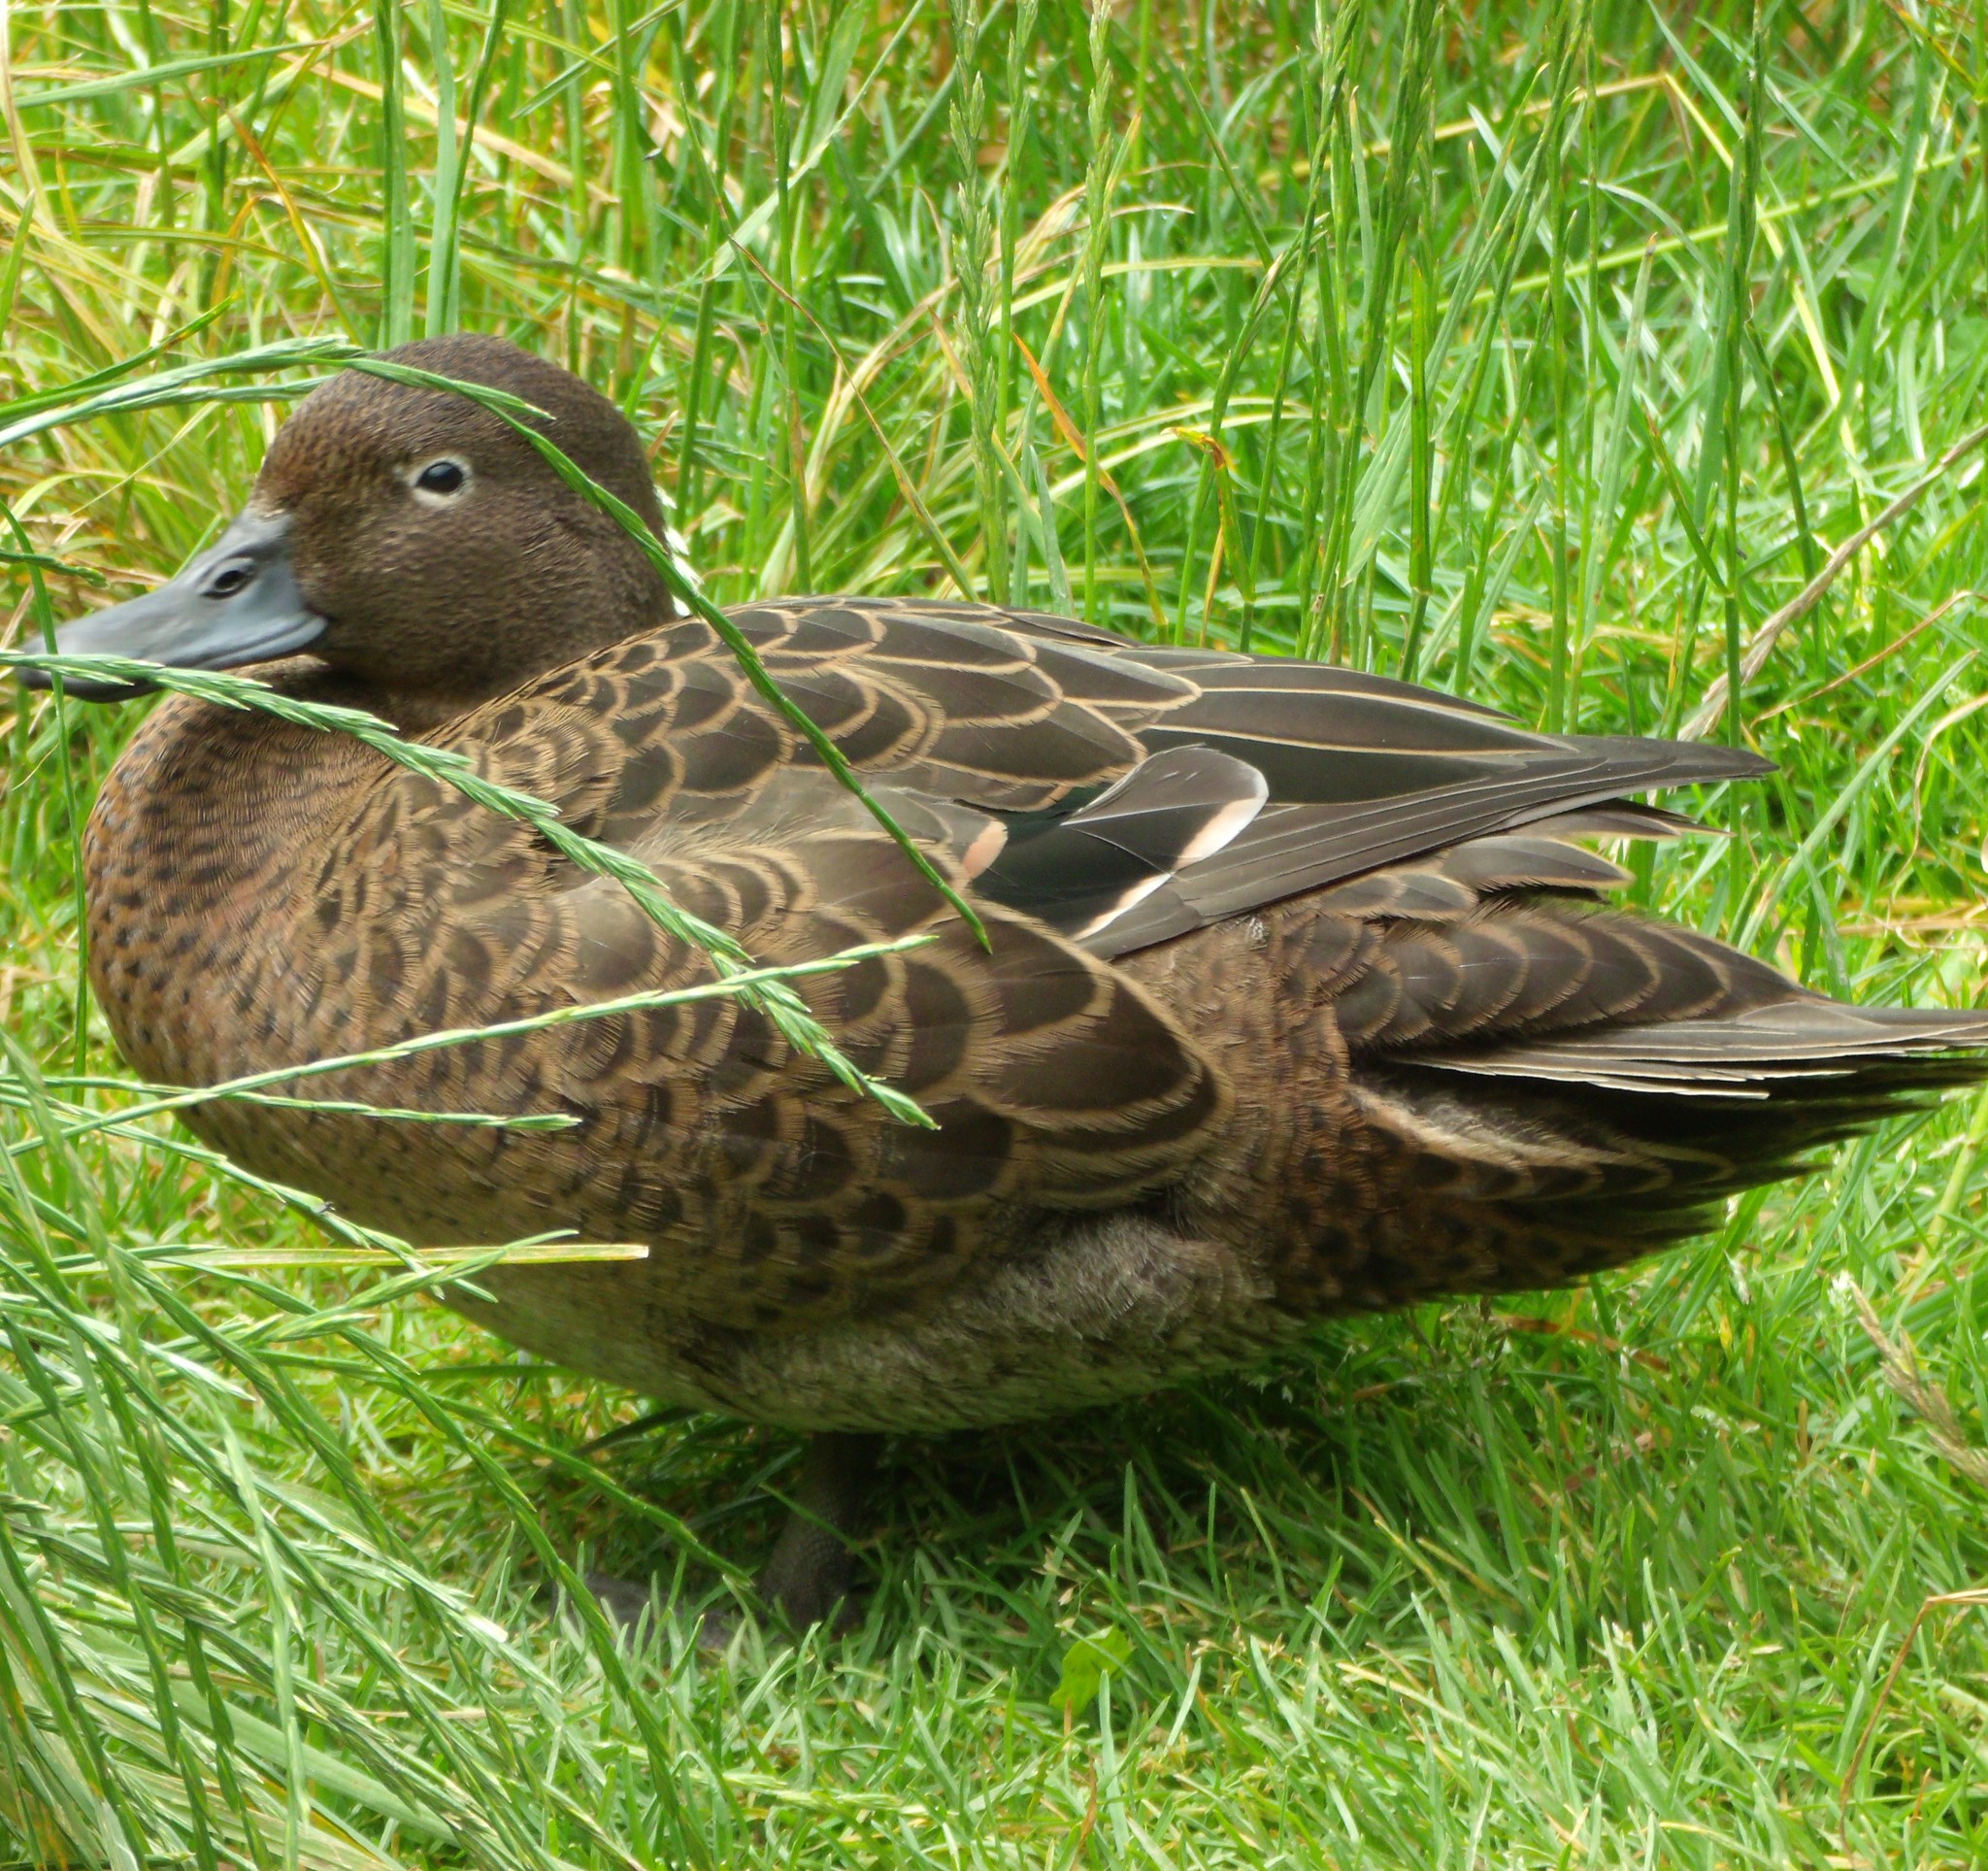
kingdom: Animalia
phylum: Chordata
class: Aves
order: Anseriformes
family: Anatidae
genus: Anas
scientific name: Anas chlorotis
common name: Brown teal
